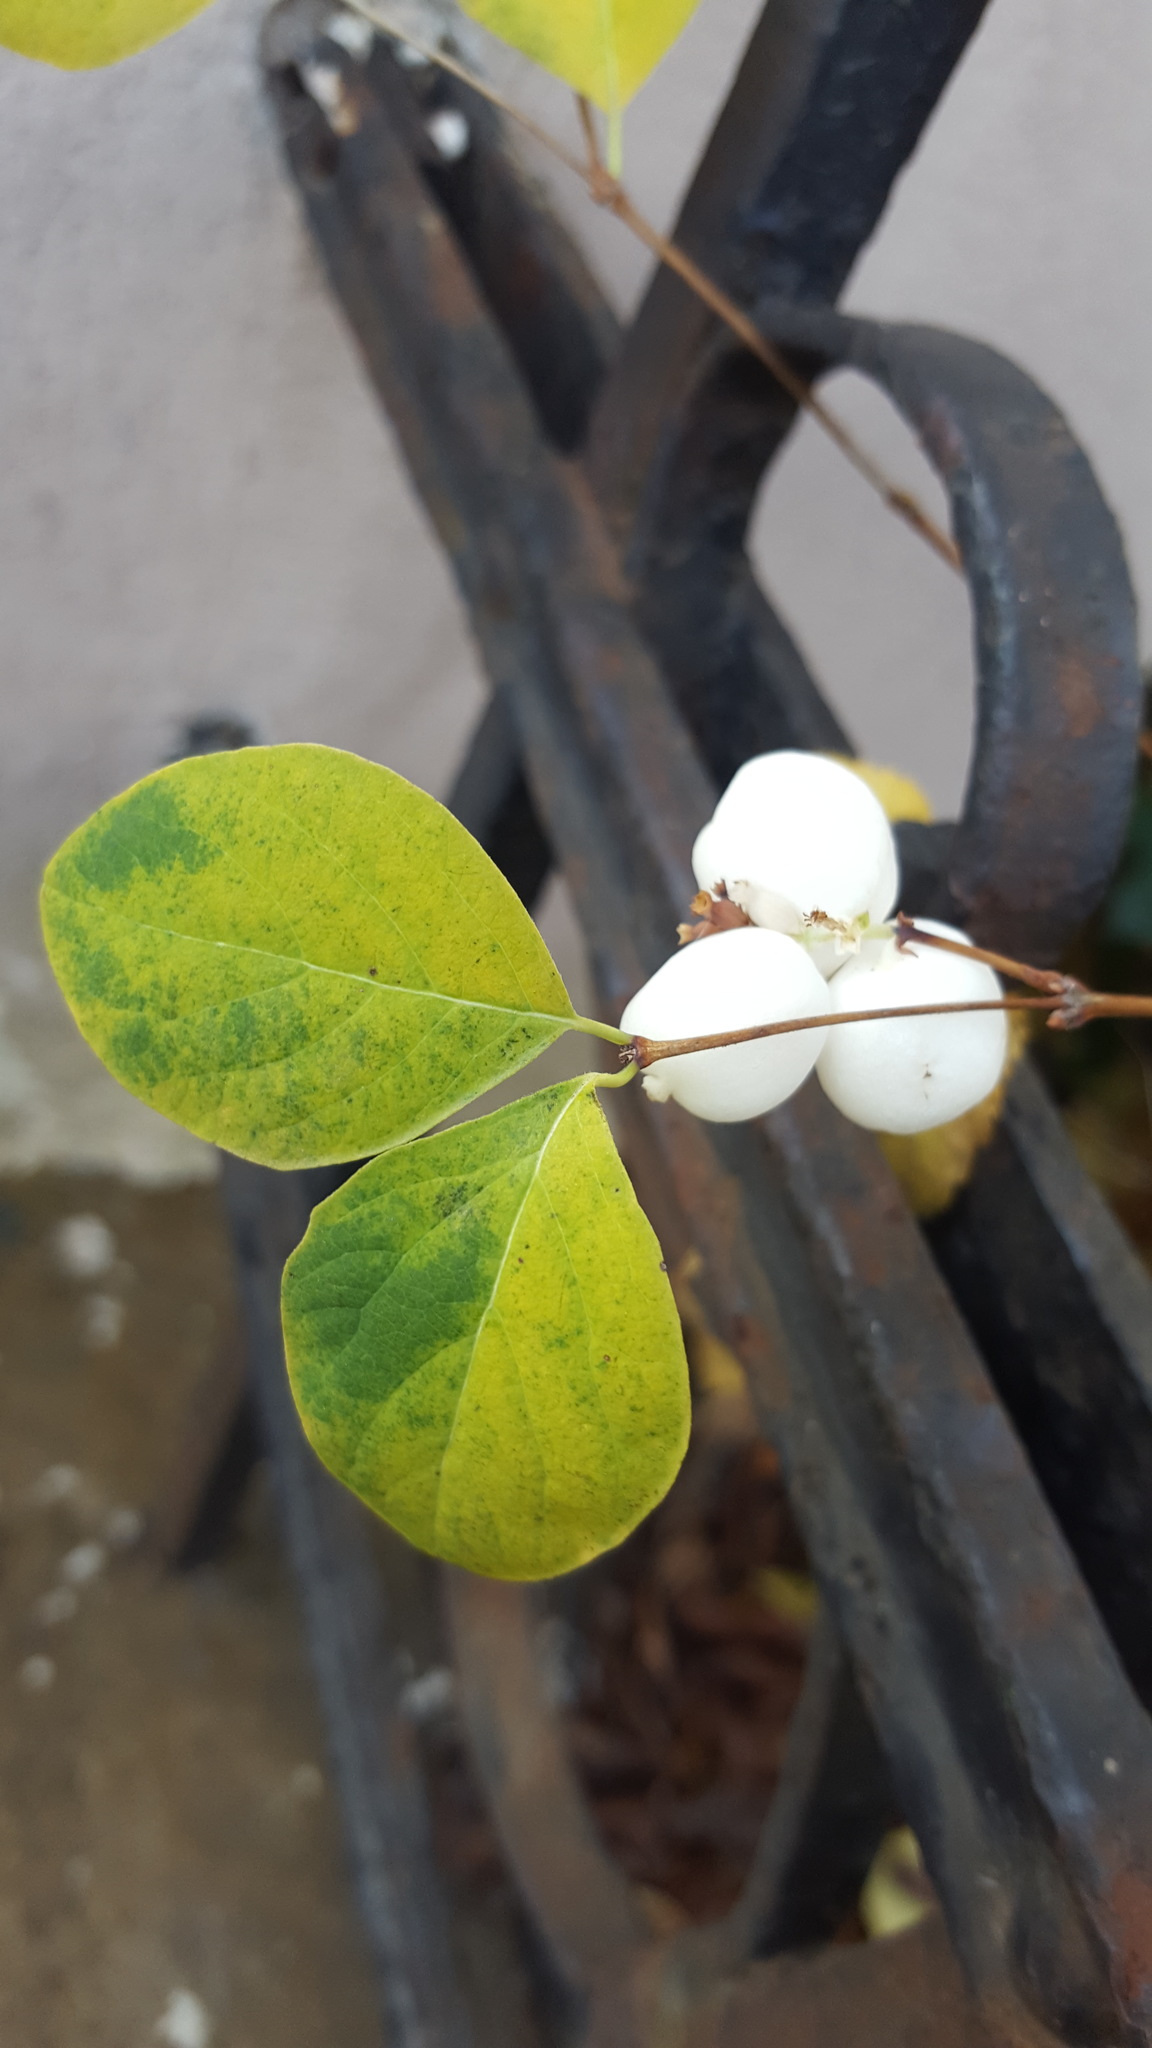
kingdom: Plantae
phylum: Tracheophyta
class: Magnoliopsida
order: Dipsacales
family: Caprifoliaceae
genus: Symphoricarpos
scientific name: Symphoricarpos albus
